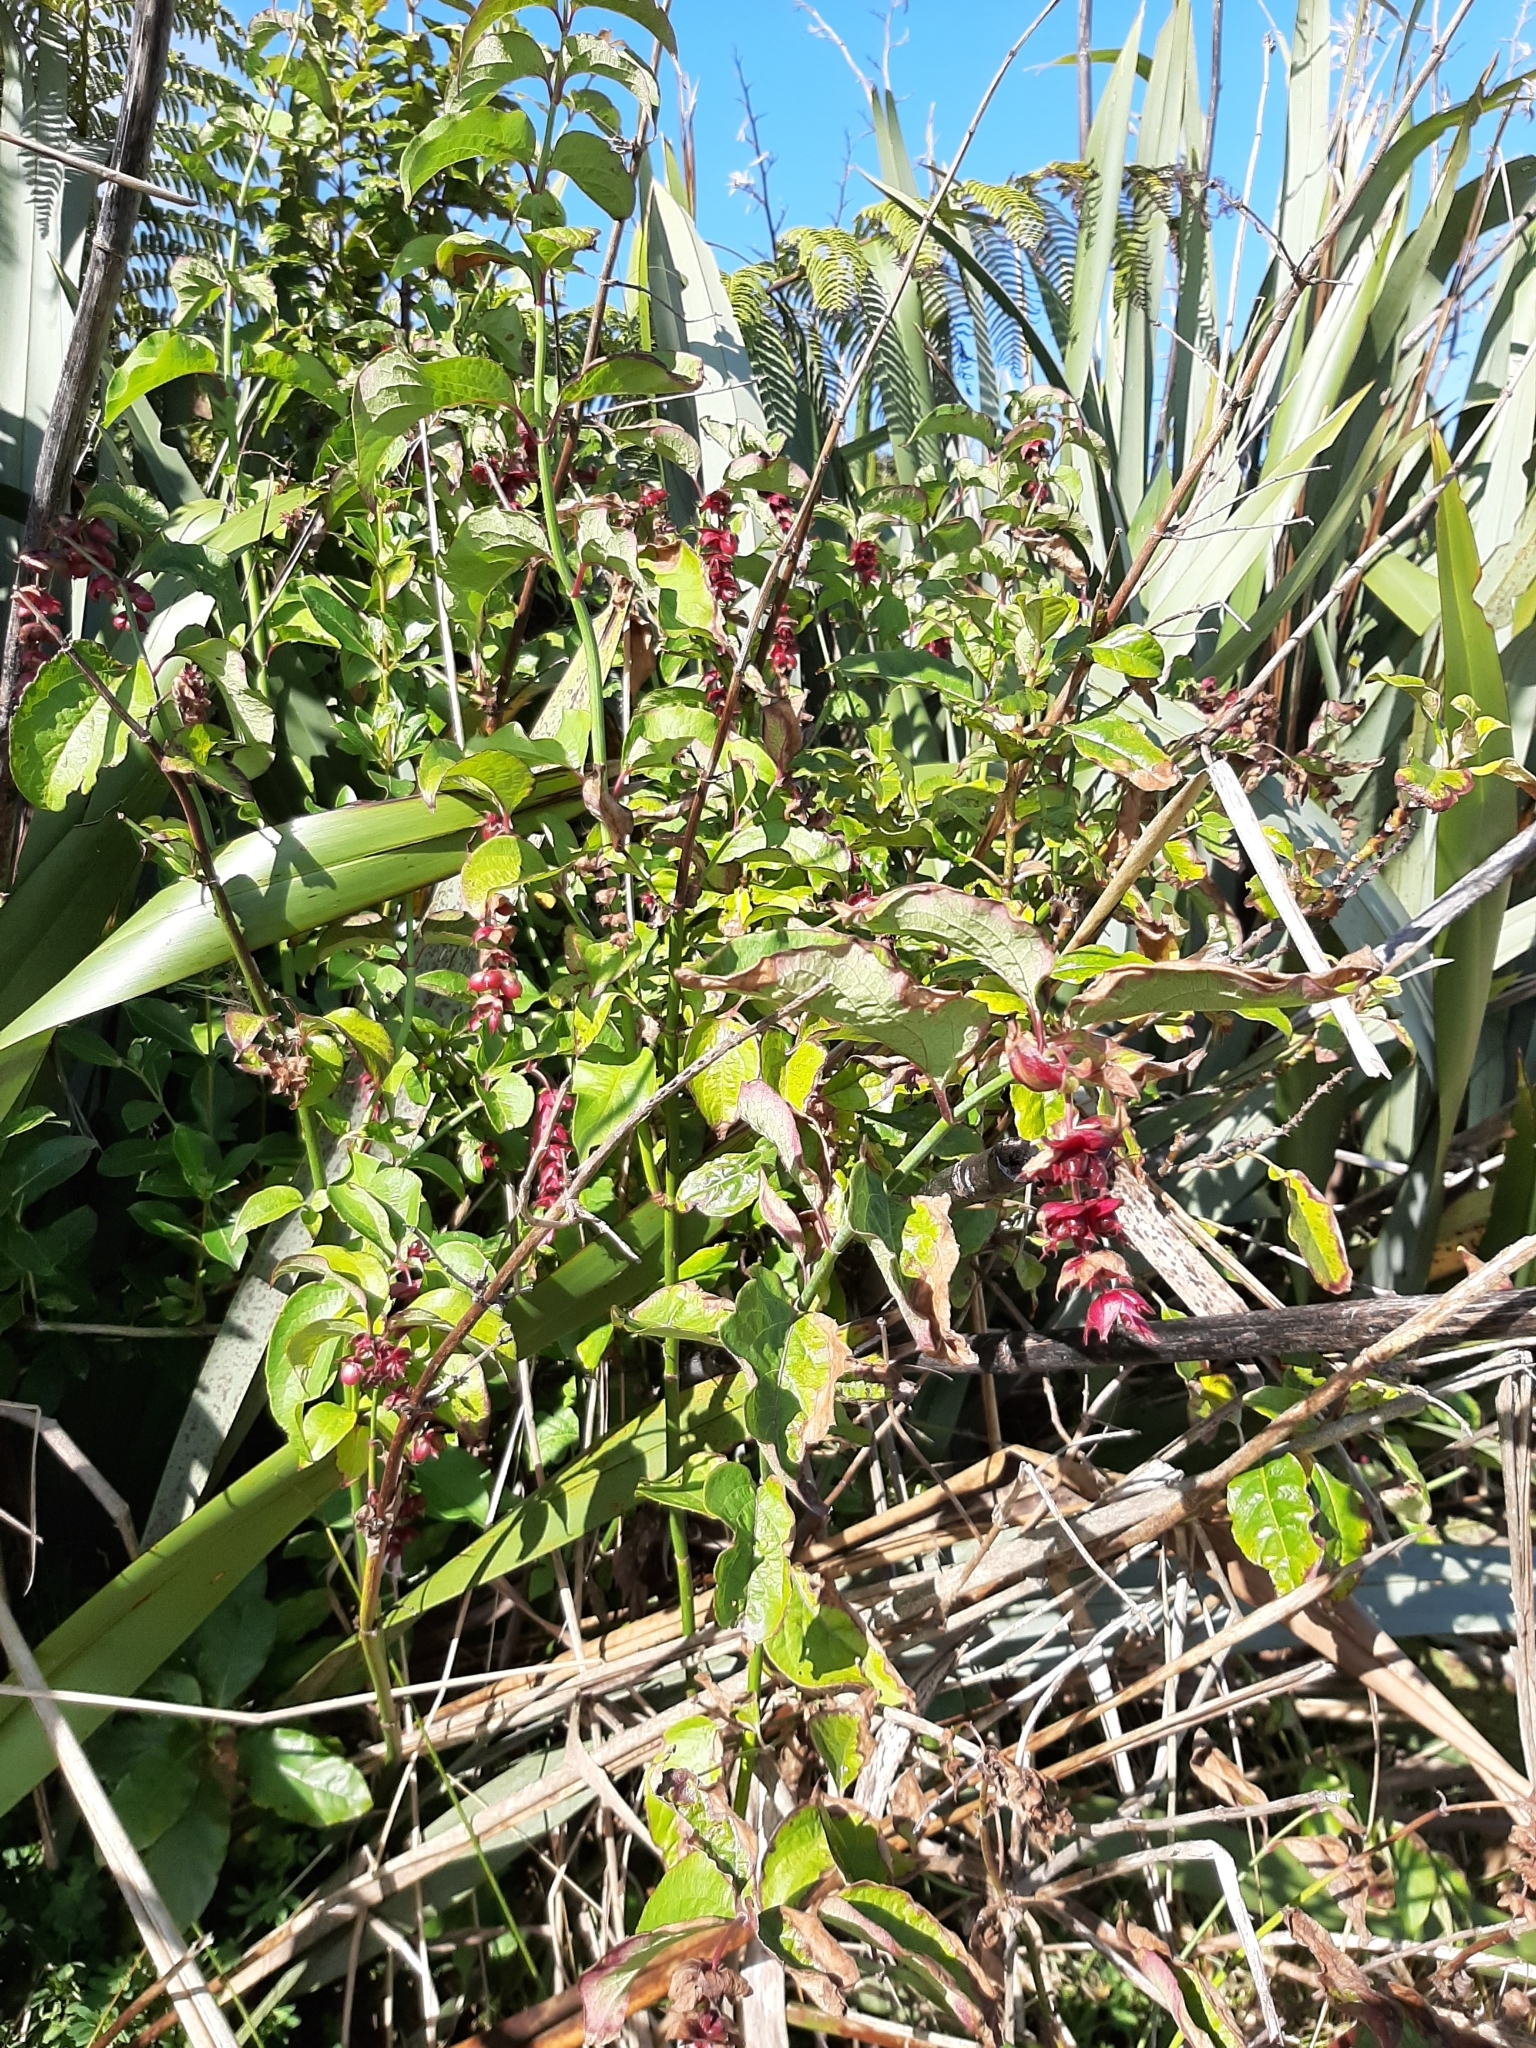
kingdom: Plantae
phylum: Tracheophyta
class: Magnoliopsida
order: Dipsacales
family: Caprifoliaceae
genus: Leycesteria
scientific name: Leycesteria formosa
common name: Himalayan honeysuckle
